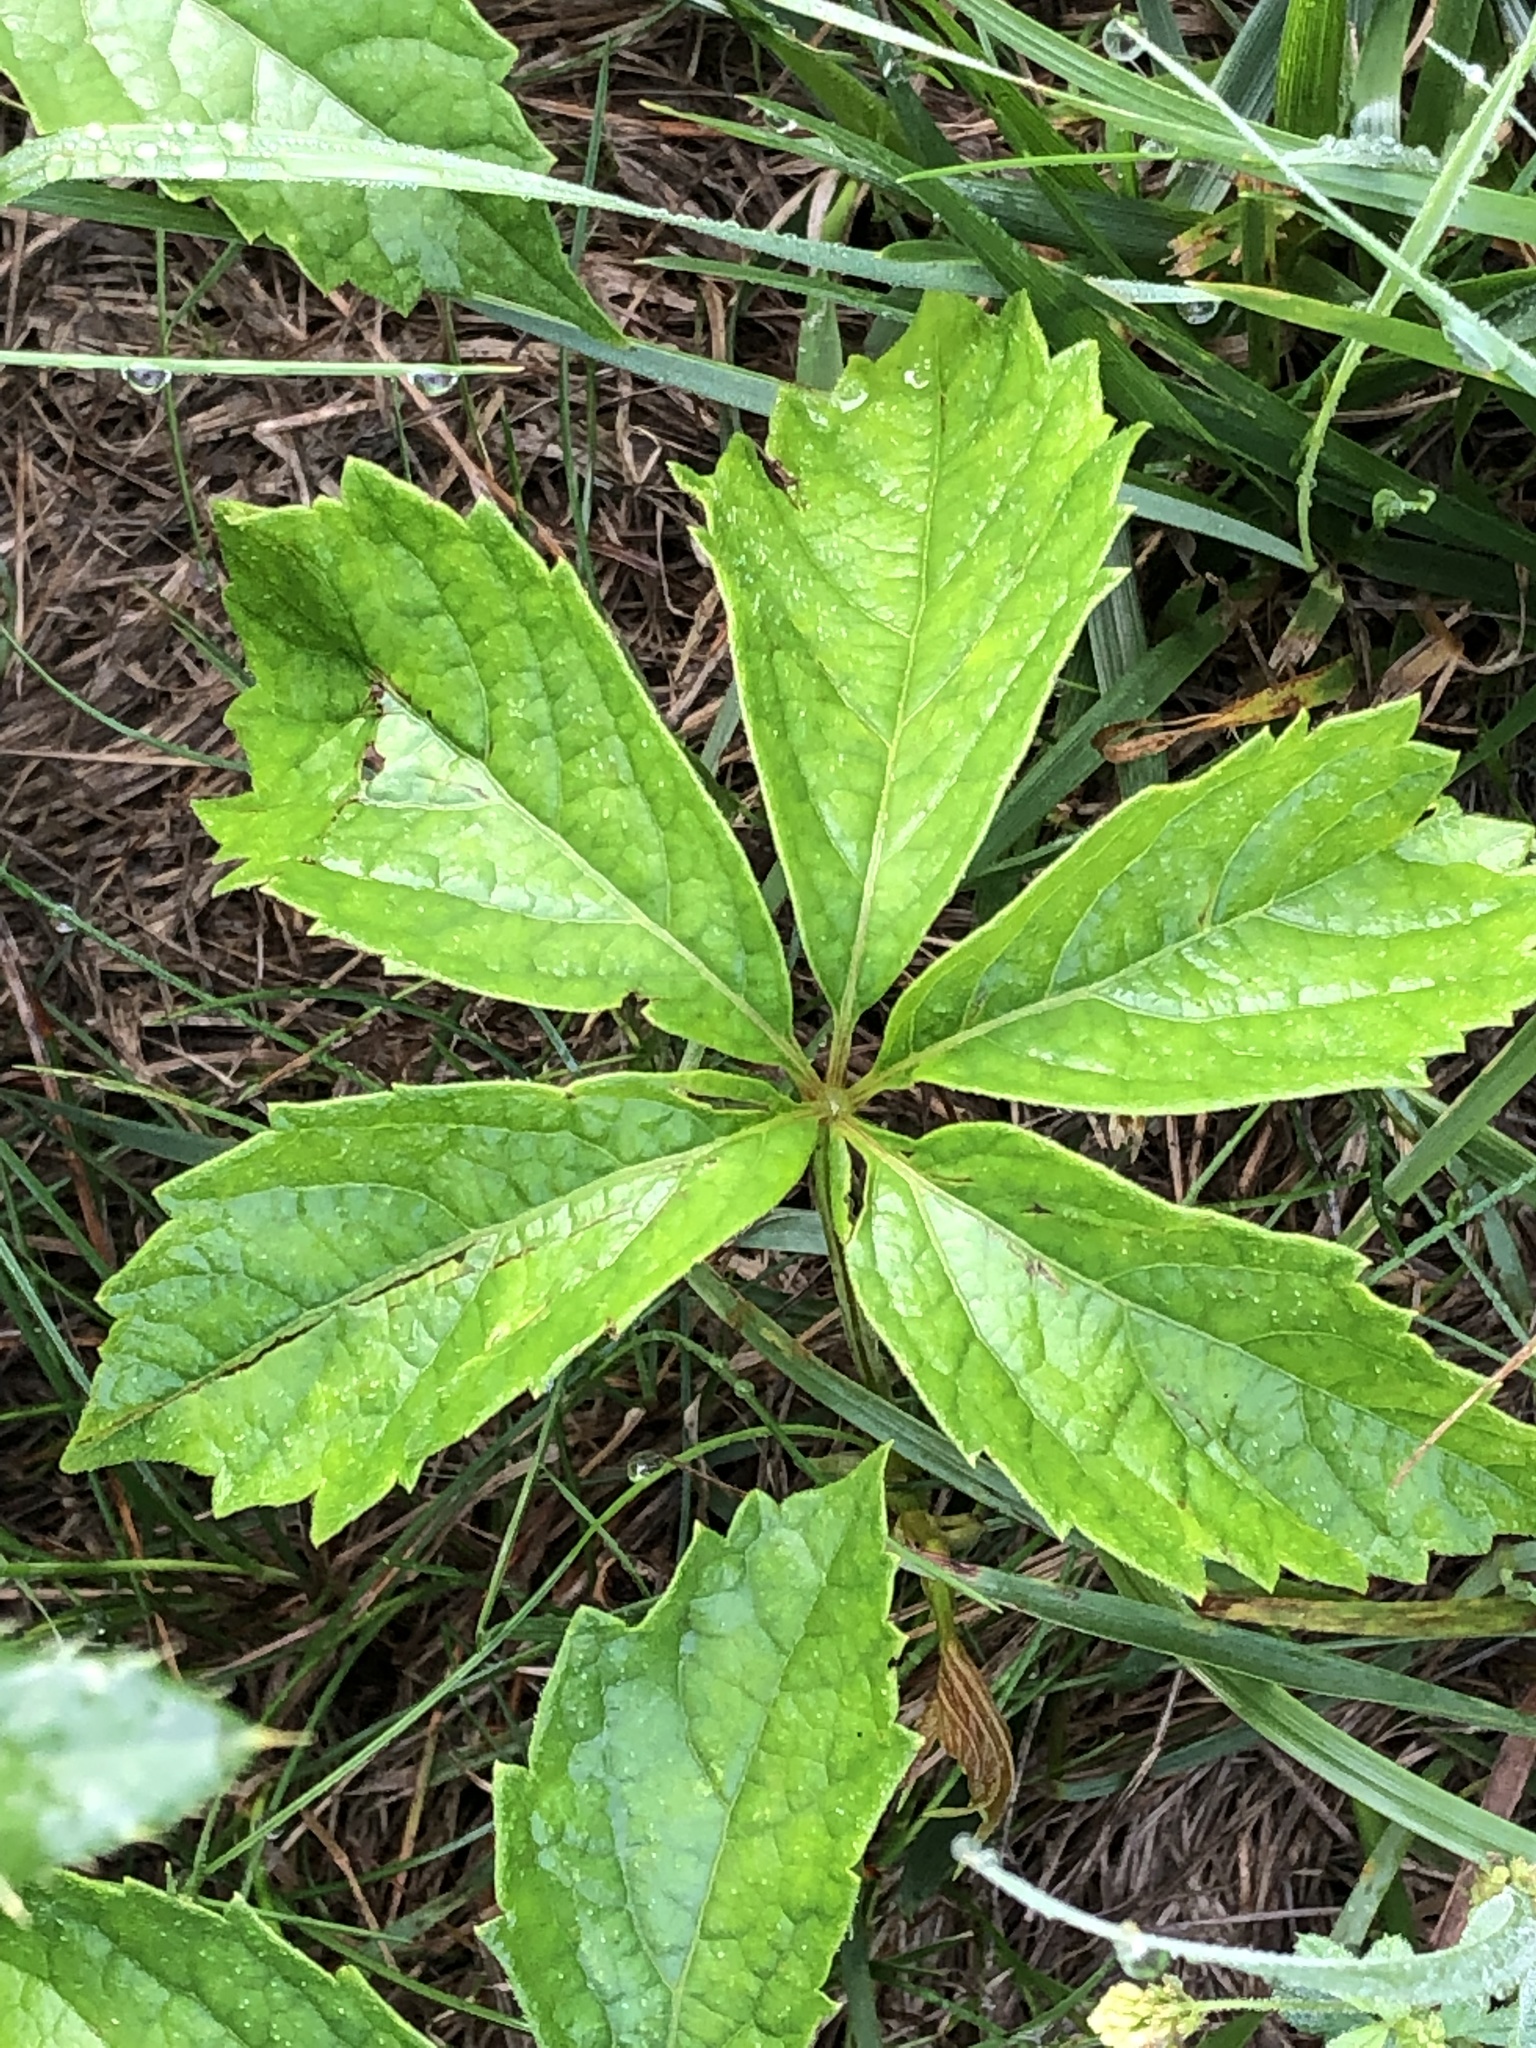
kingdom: Plantae
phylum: Tracheophyta
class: Magnoliopsida
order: Vitales
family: Vitaceae
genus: Parthenocissus
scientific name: Parthenocissus quinquefolia
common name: Virginia-creeper
